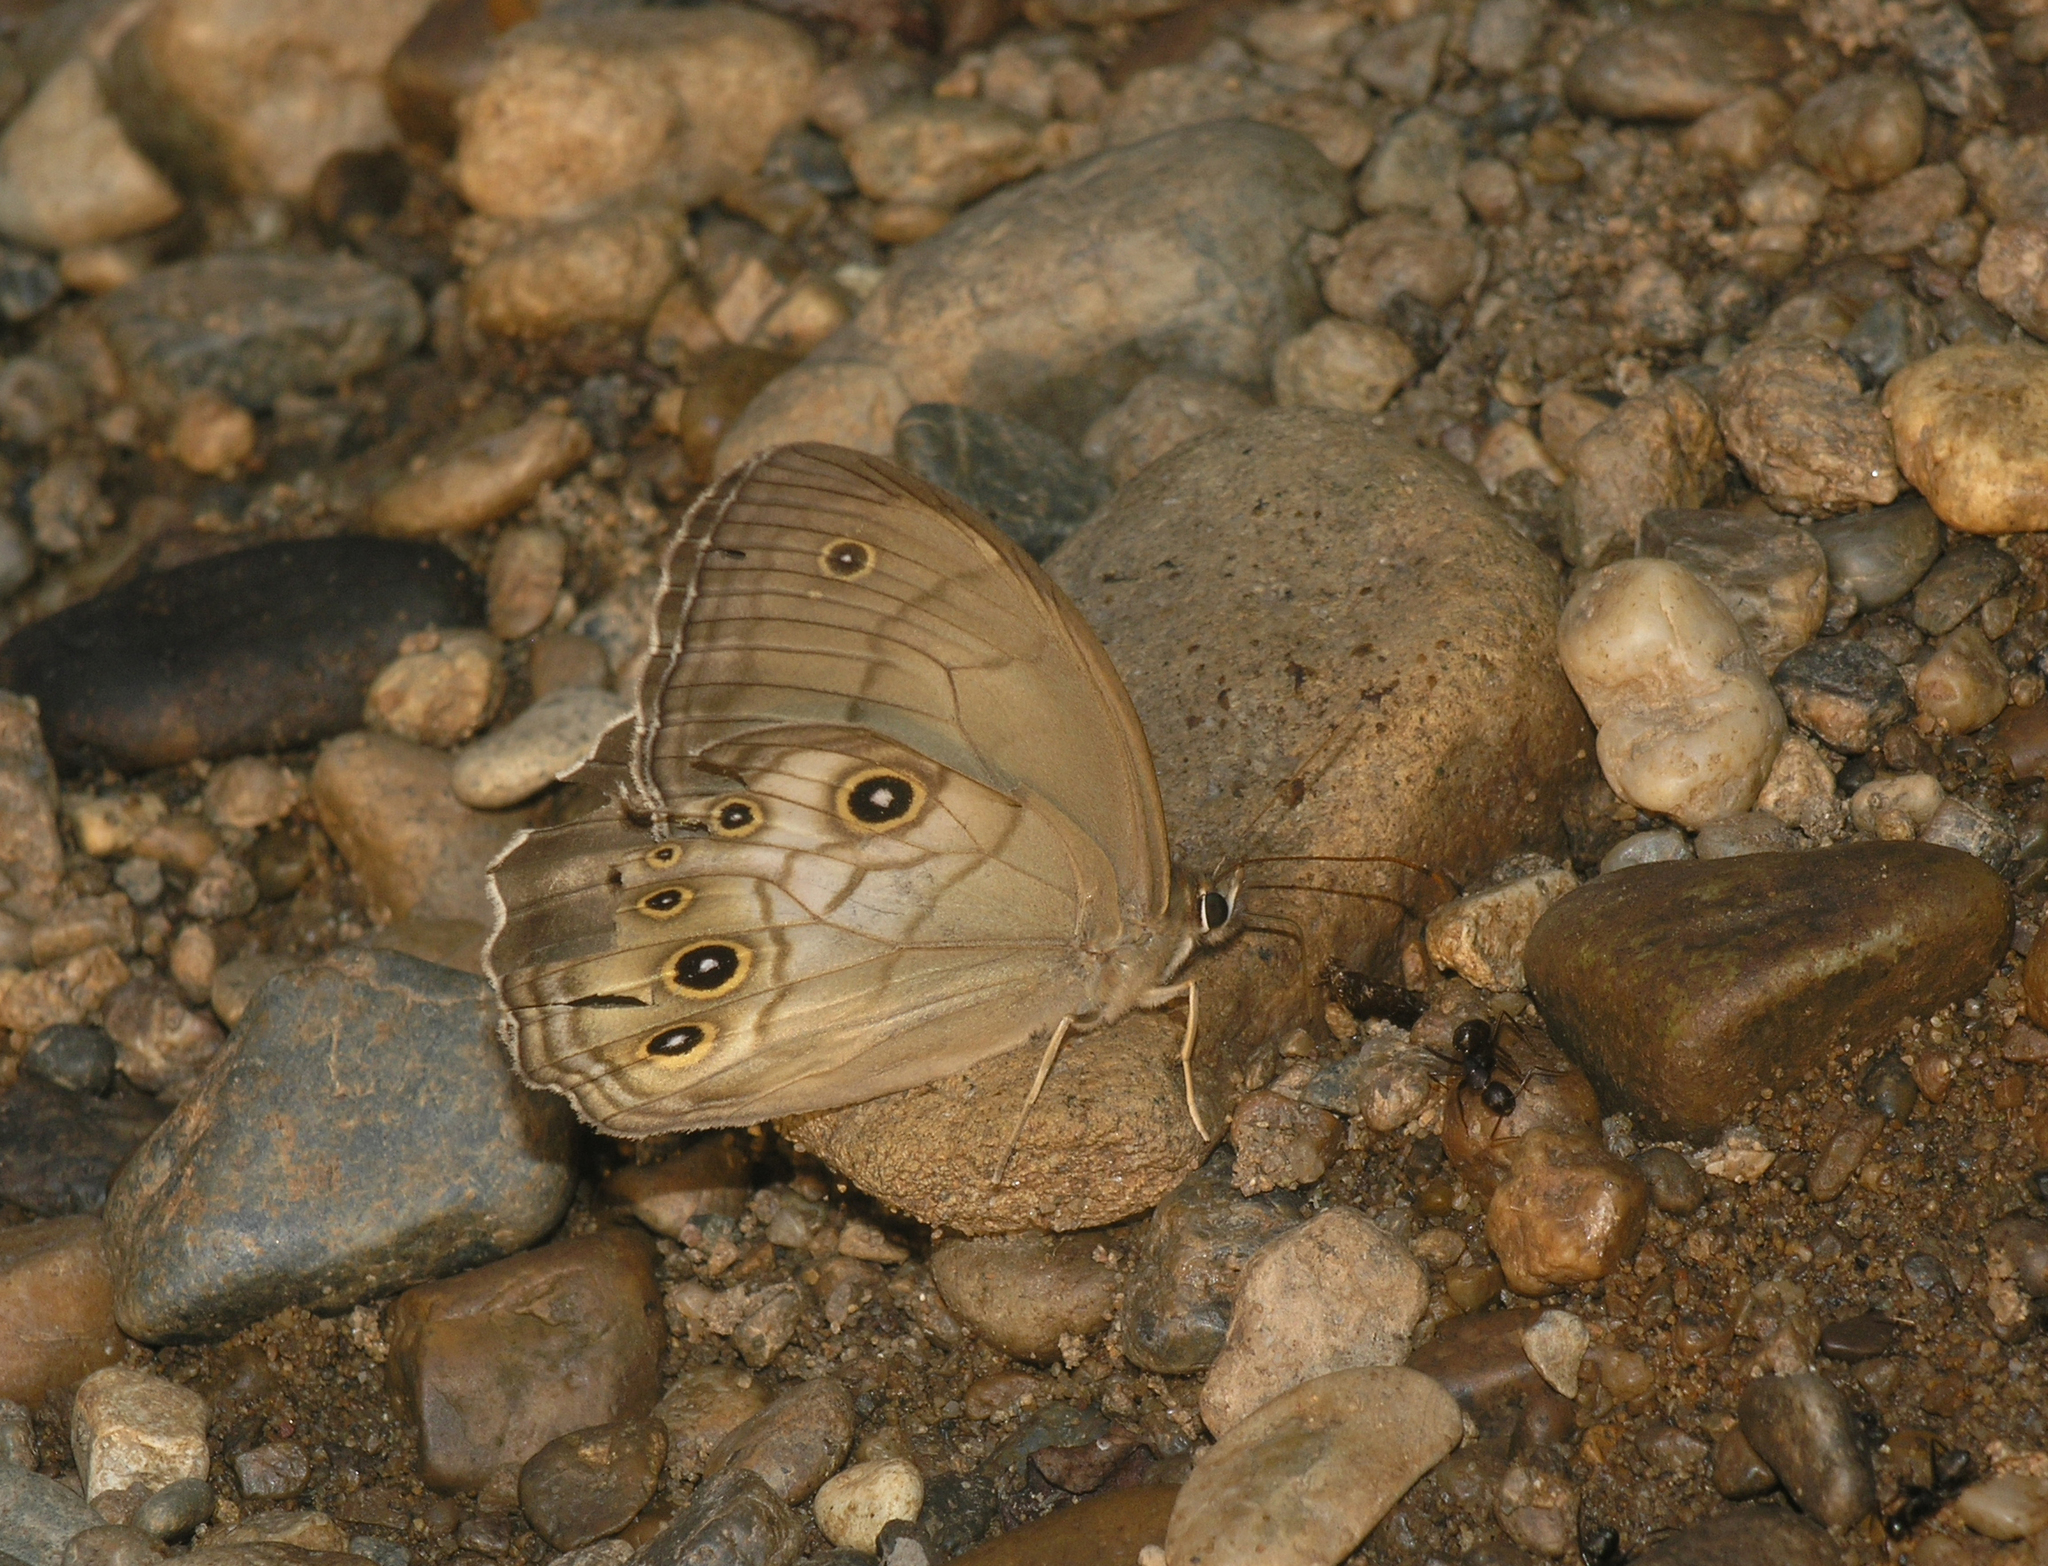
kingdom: Animalia
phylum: Arthropoda
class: Insecta
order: Lepidoptera
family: Nymphalidae
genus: Ninguta
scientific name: Ninguta schrenckii
